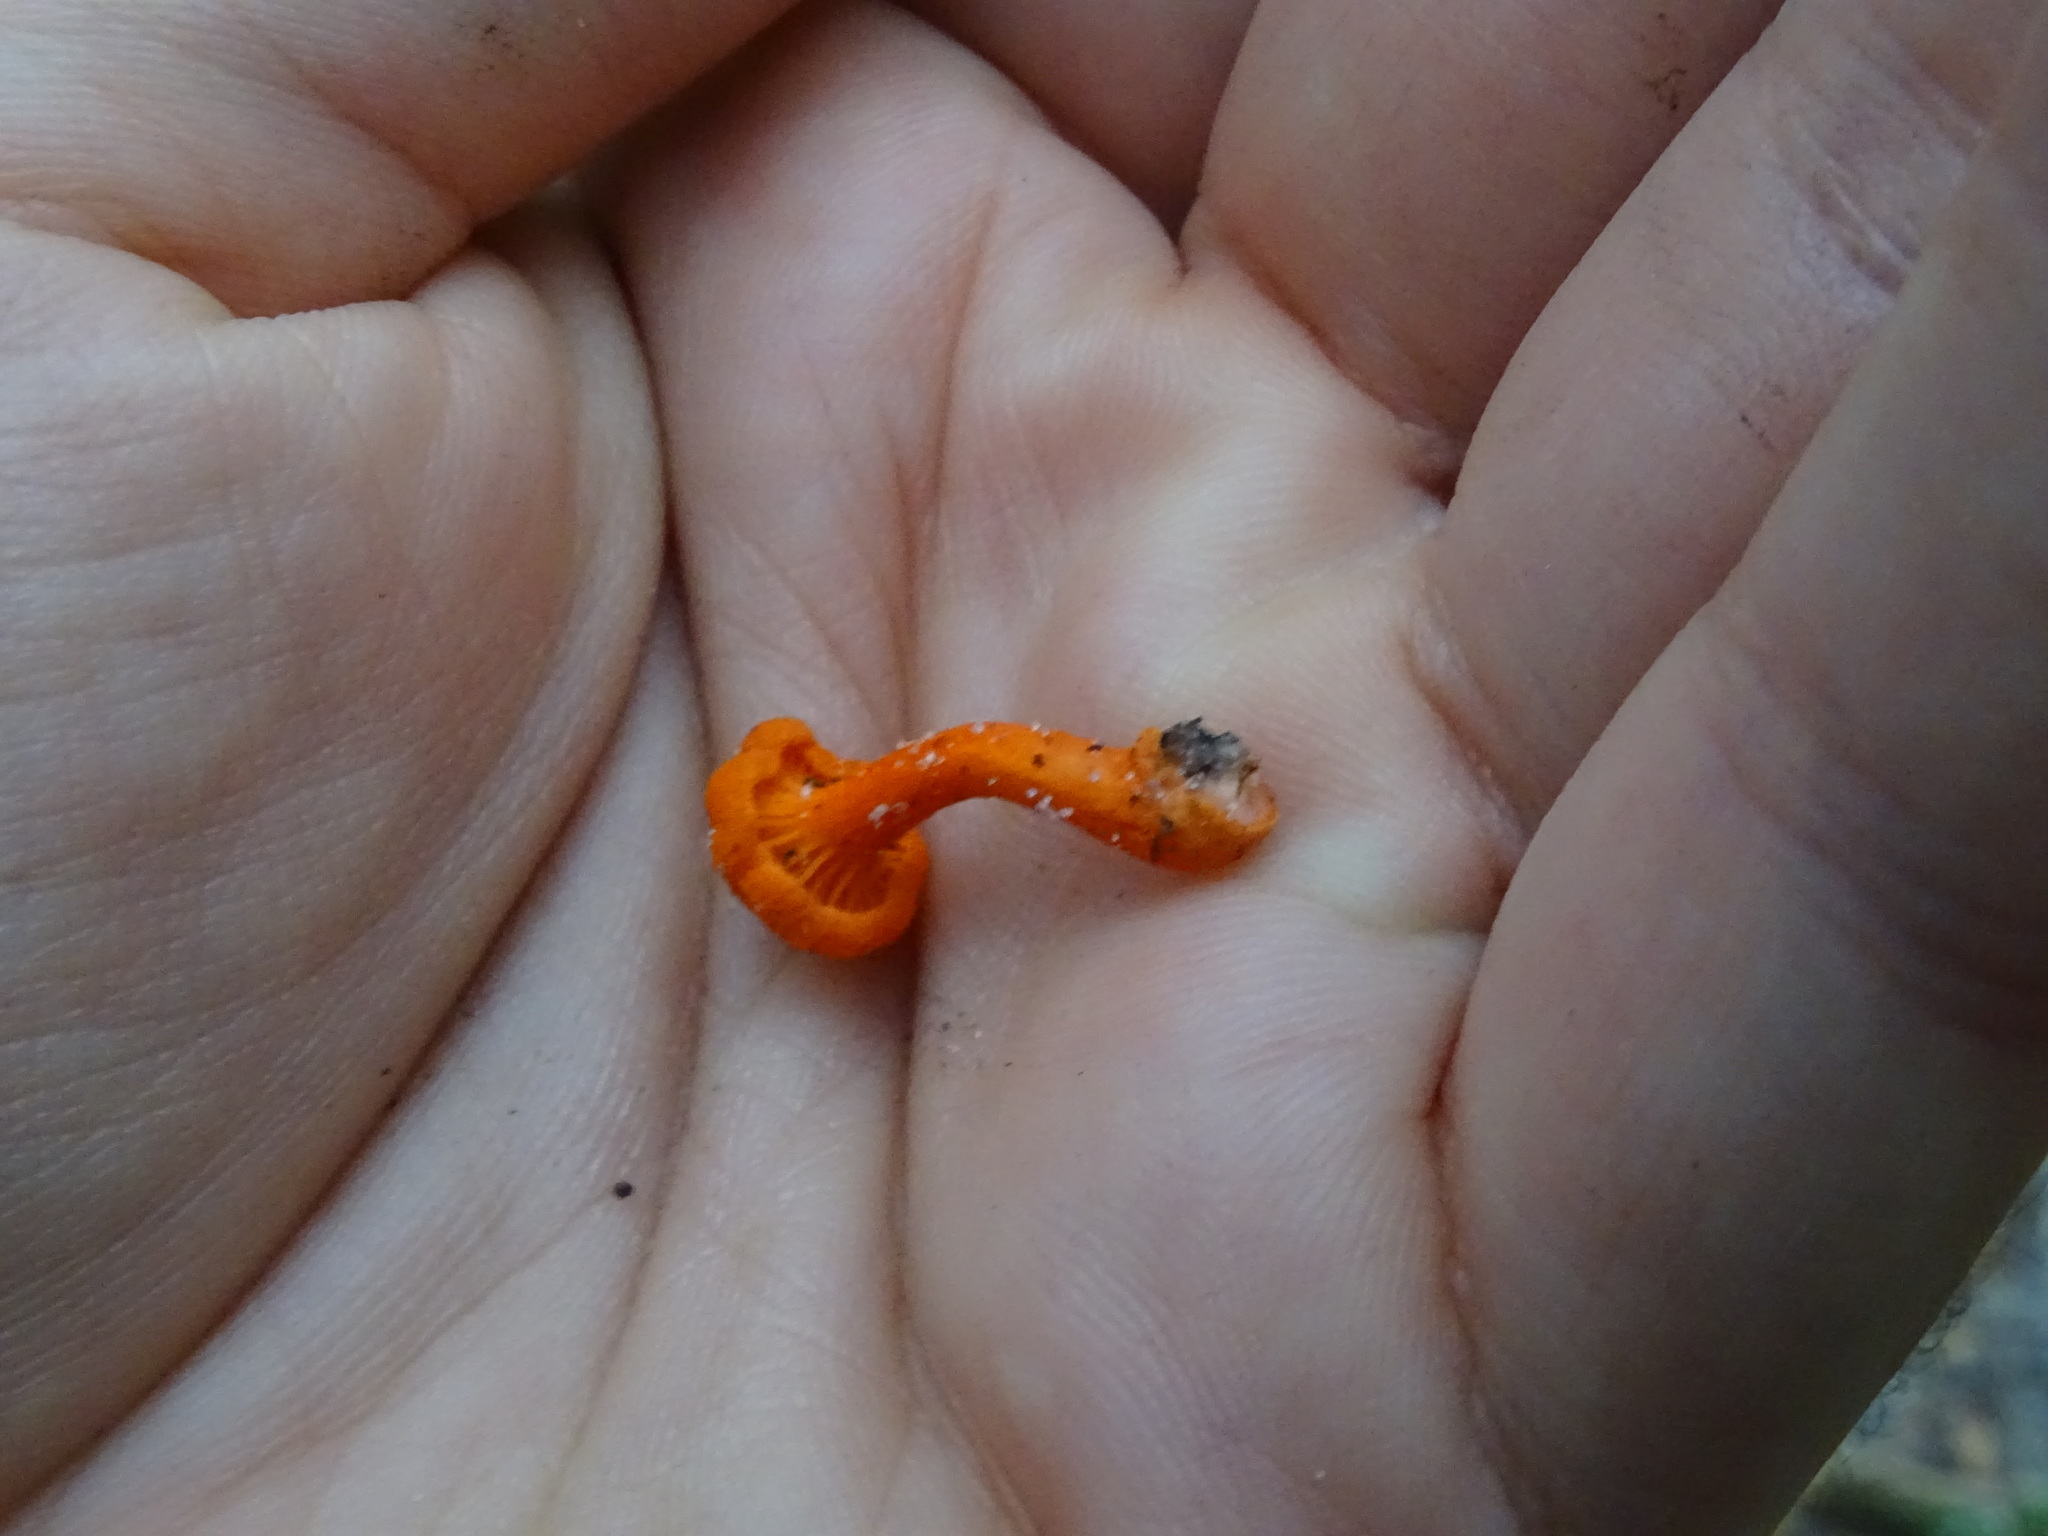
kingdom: Fungi
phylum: Basidiomycota
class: Agaricomycetes
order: Cantharellales
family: Hydnaceae
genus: Cantharellus
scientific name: Cantharellus cinnabarinus
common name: Cinnabar chanterelle
